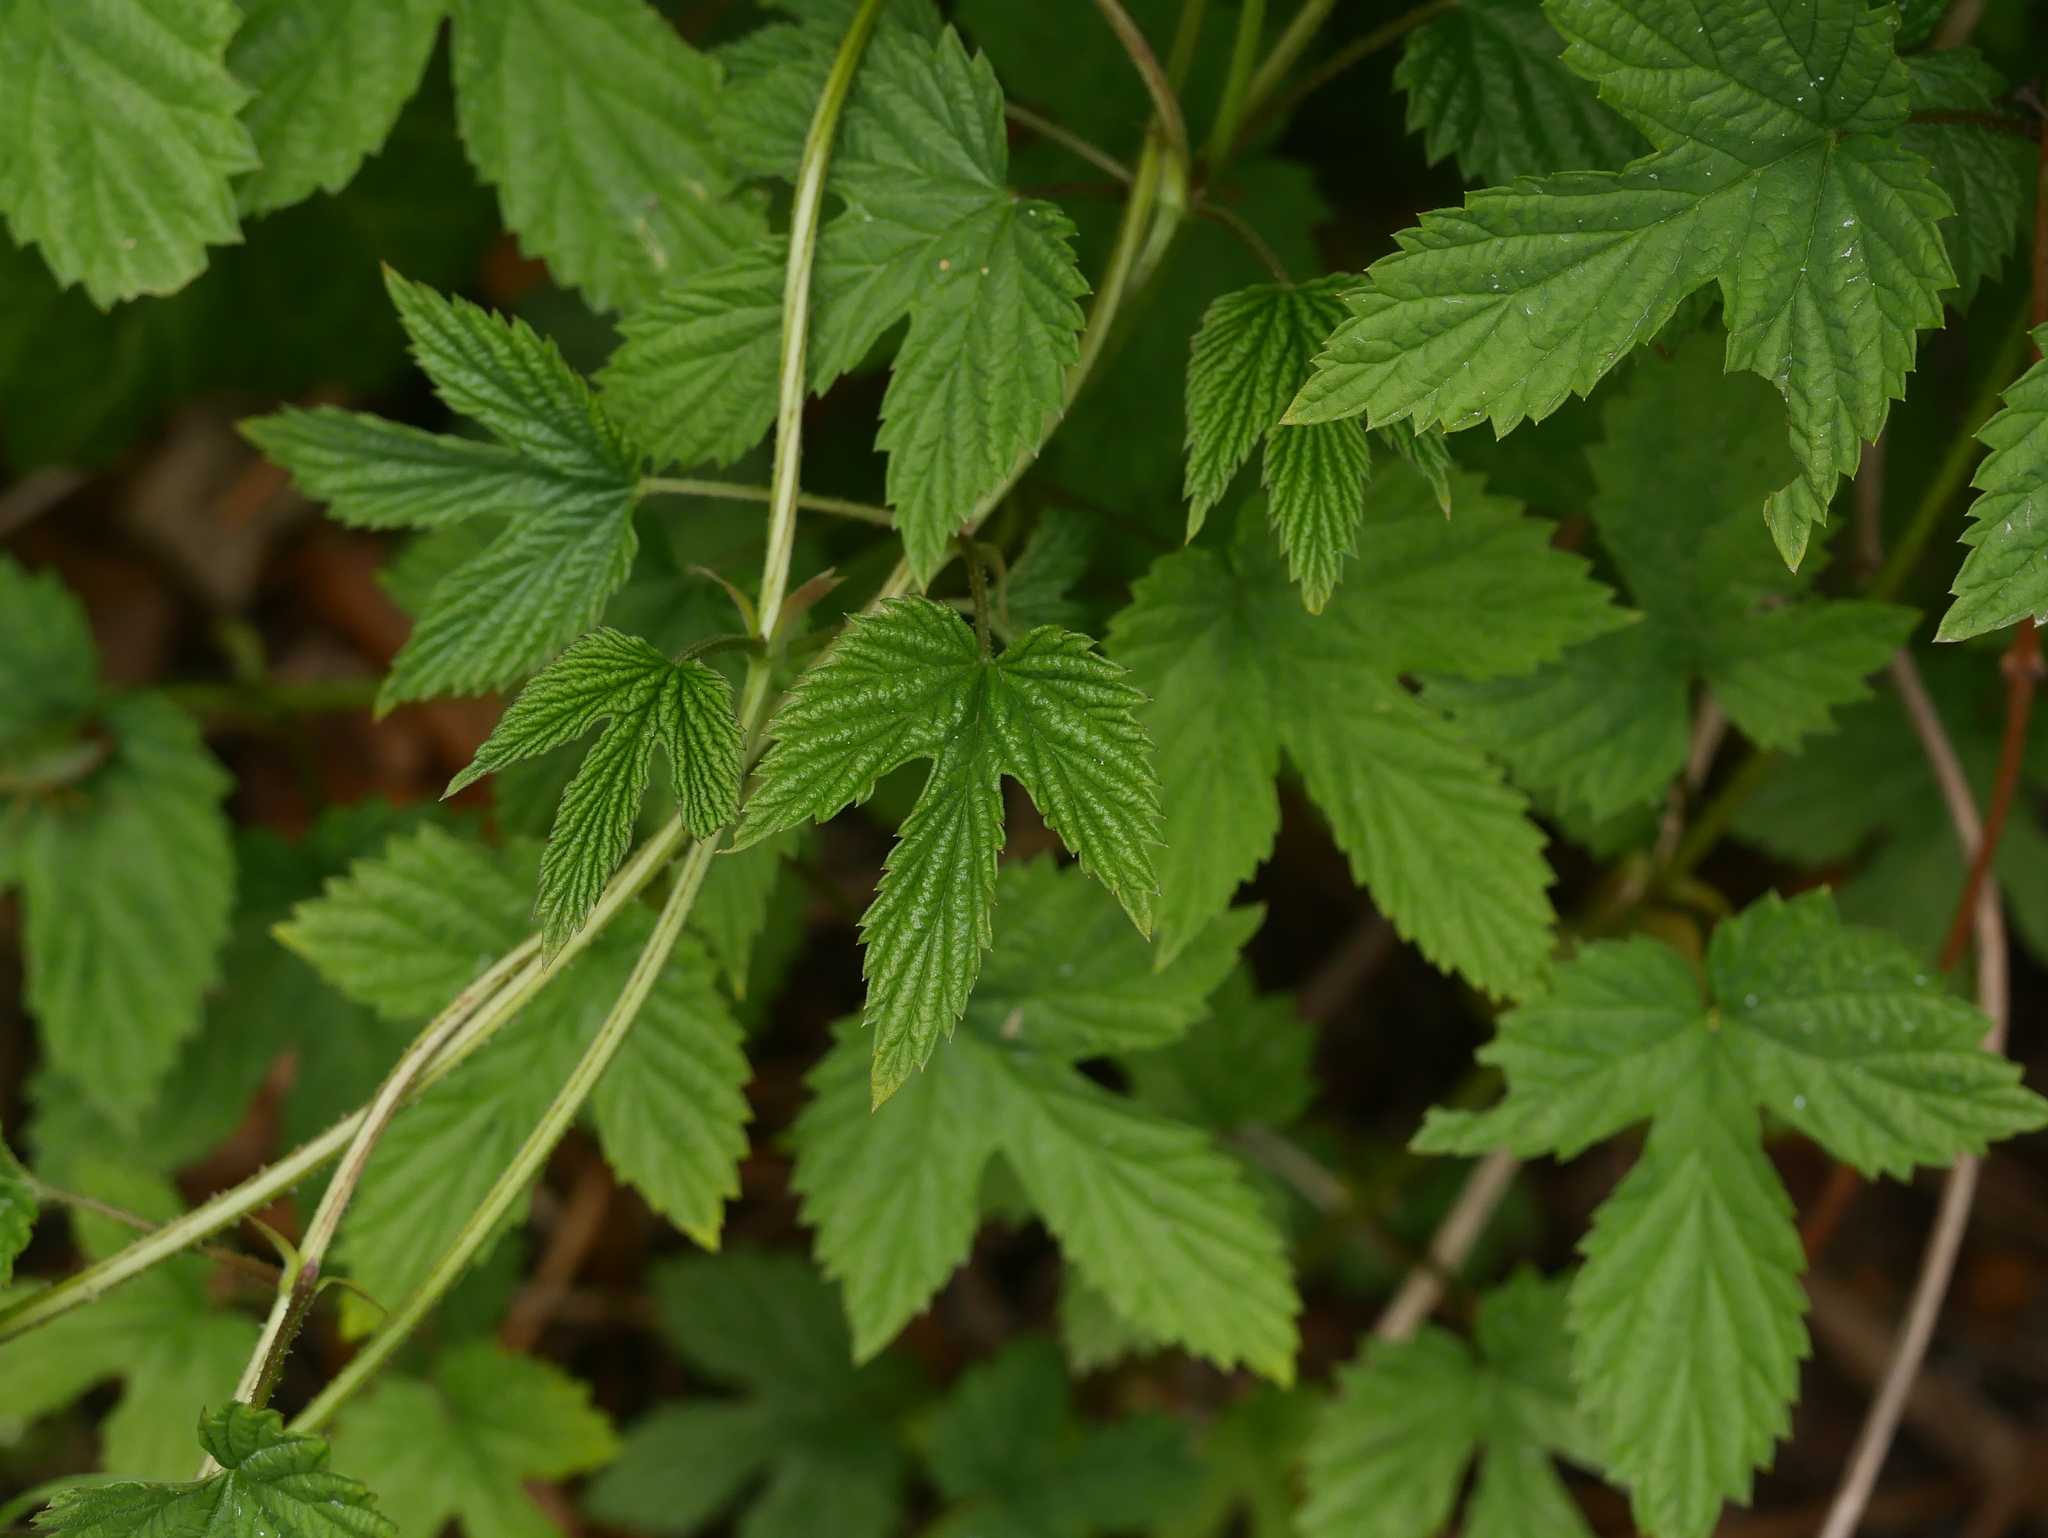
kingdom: Plantae
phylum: Tracheophyta
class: Magnoliopsida
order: Rosales
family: Cannabaceae
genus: Humulus
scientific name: Humulus lupulus
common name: Hop
